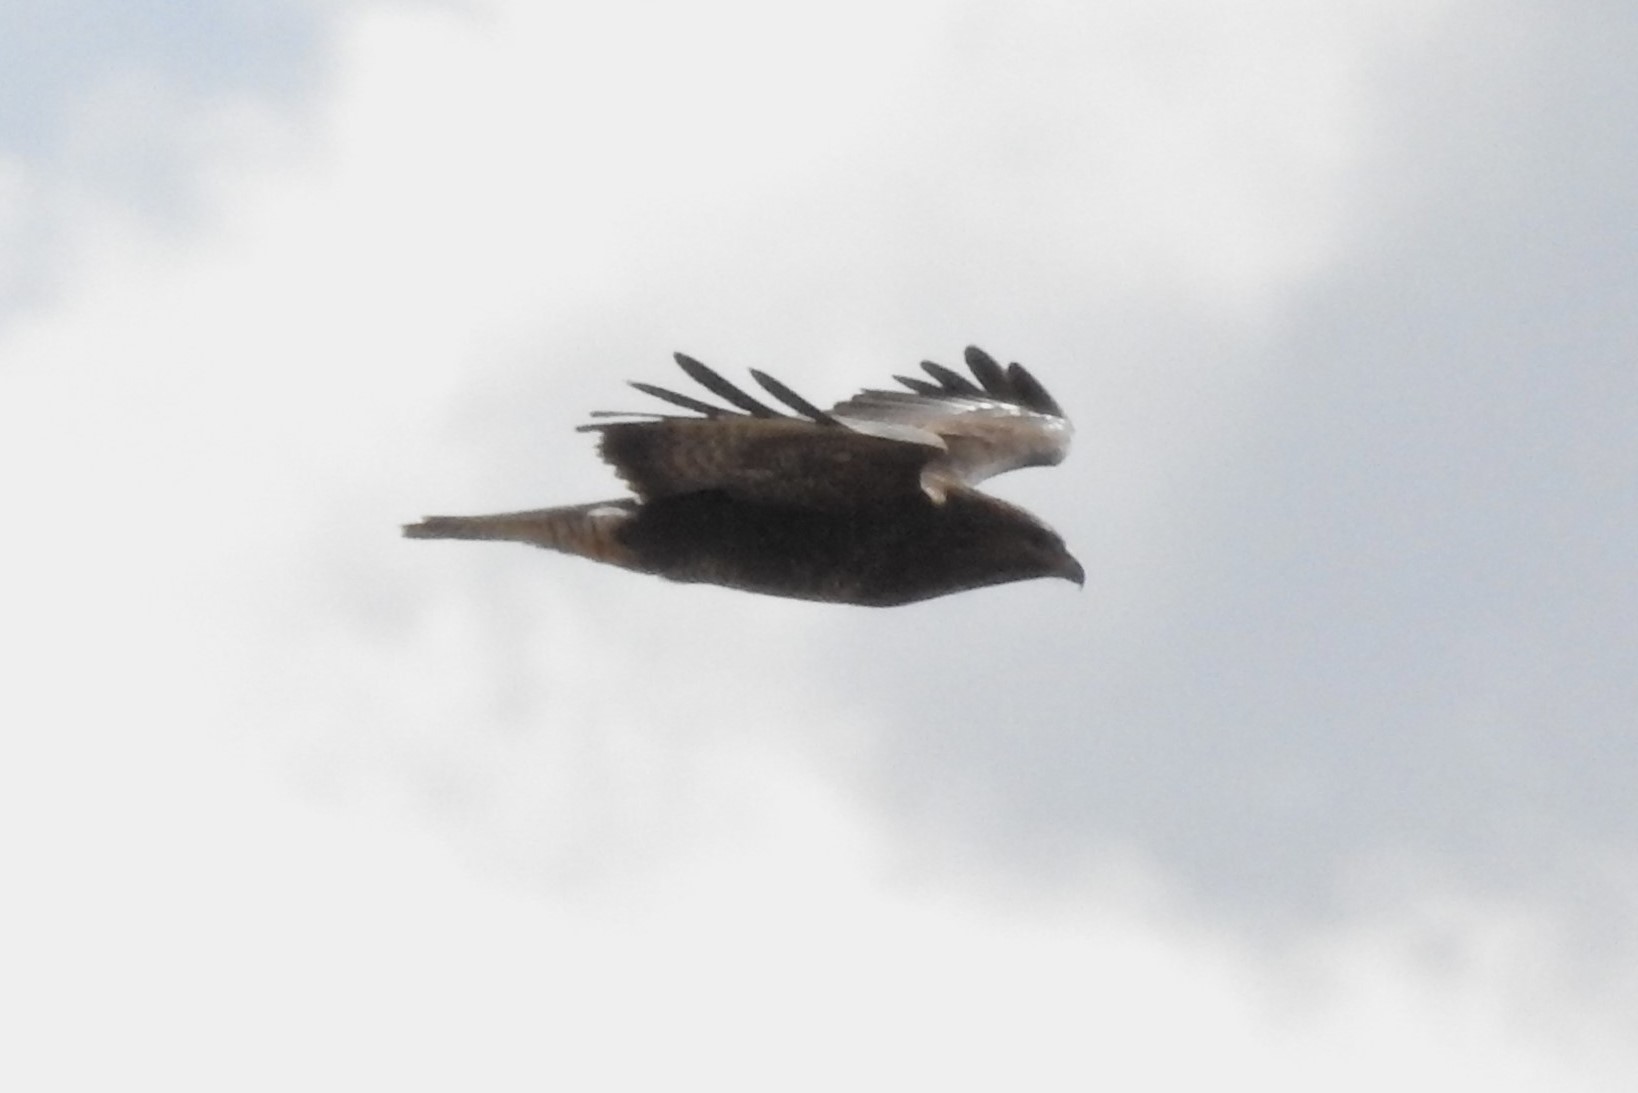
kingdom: Animalia
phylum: Chordata
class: Aves
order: Accipitriformes
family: Accipitridae
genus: Buteo
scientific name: Buteo buteo
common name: Common buzzard
